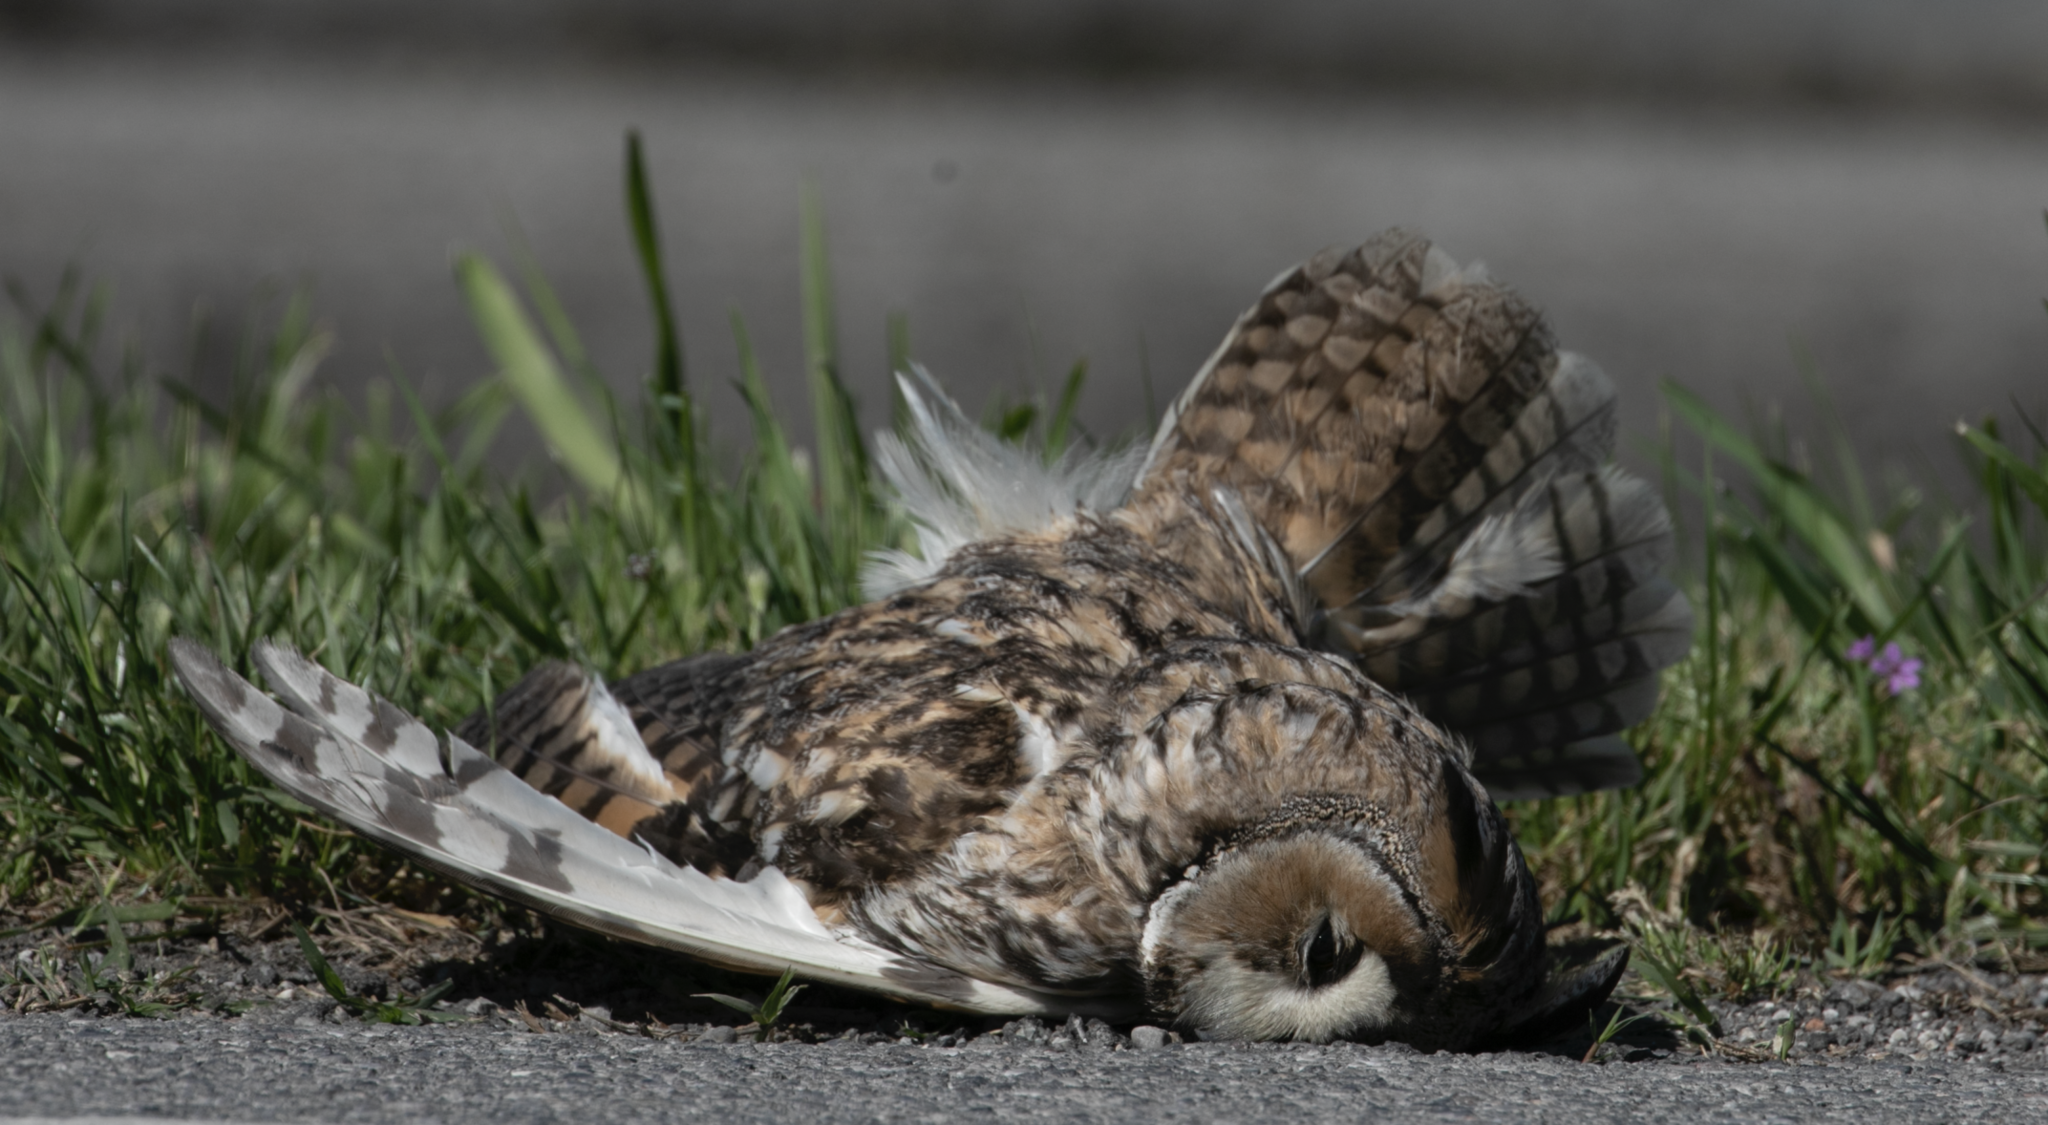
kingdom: Animalia
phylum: Chordata
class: Aves
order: Strigiformes
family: Strigidae
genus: Asio
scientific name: Asio otus
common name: Long-eared owl
